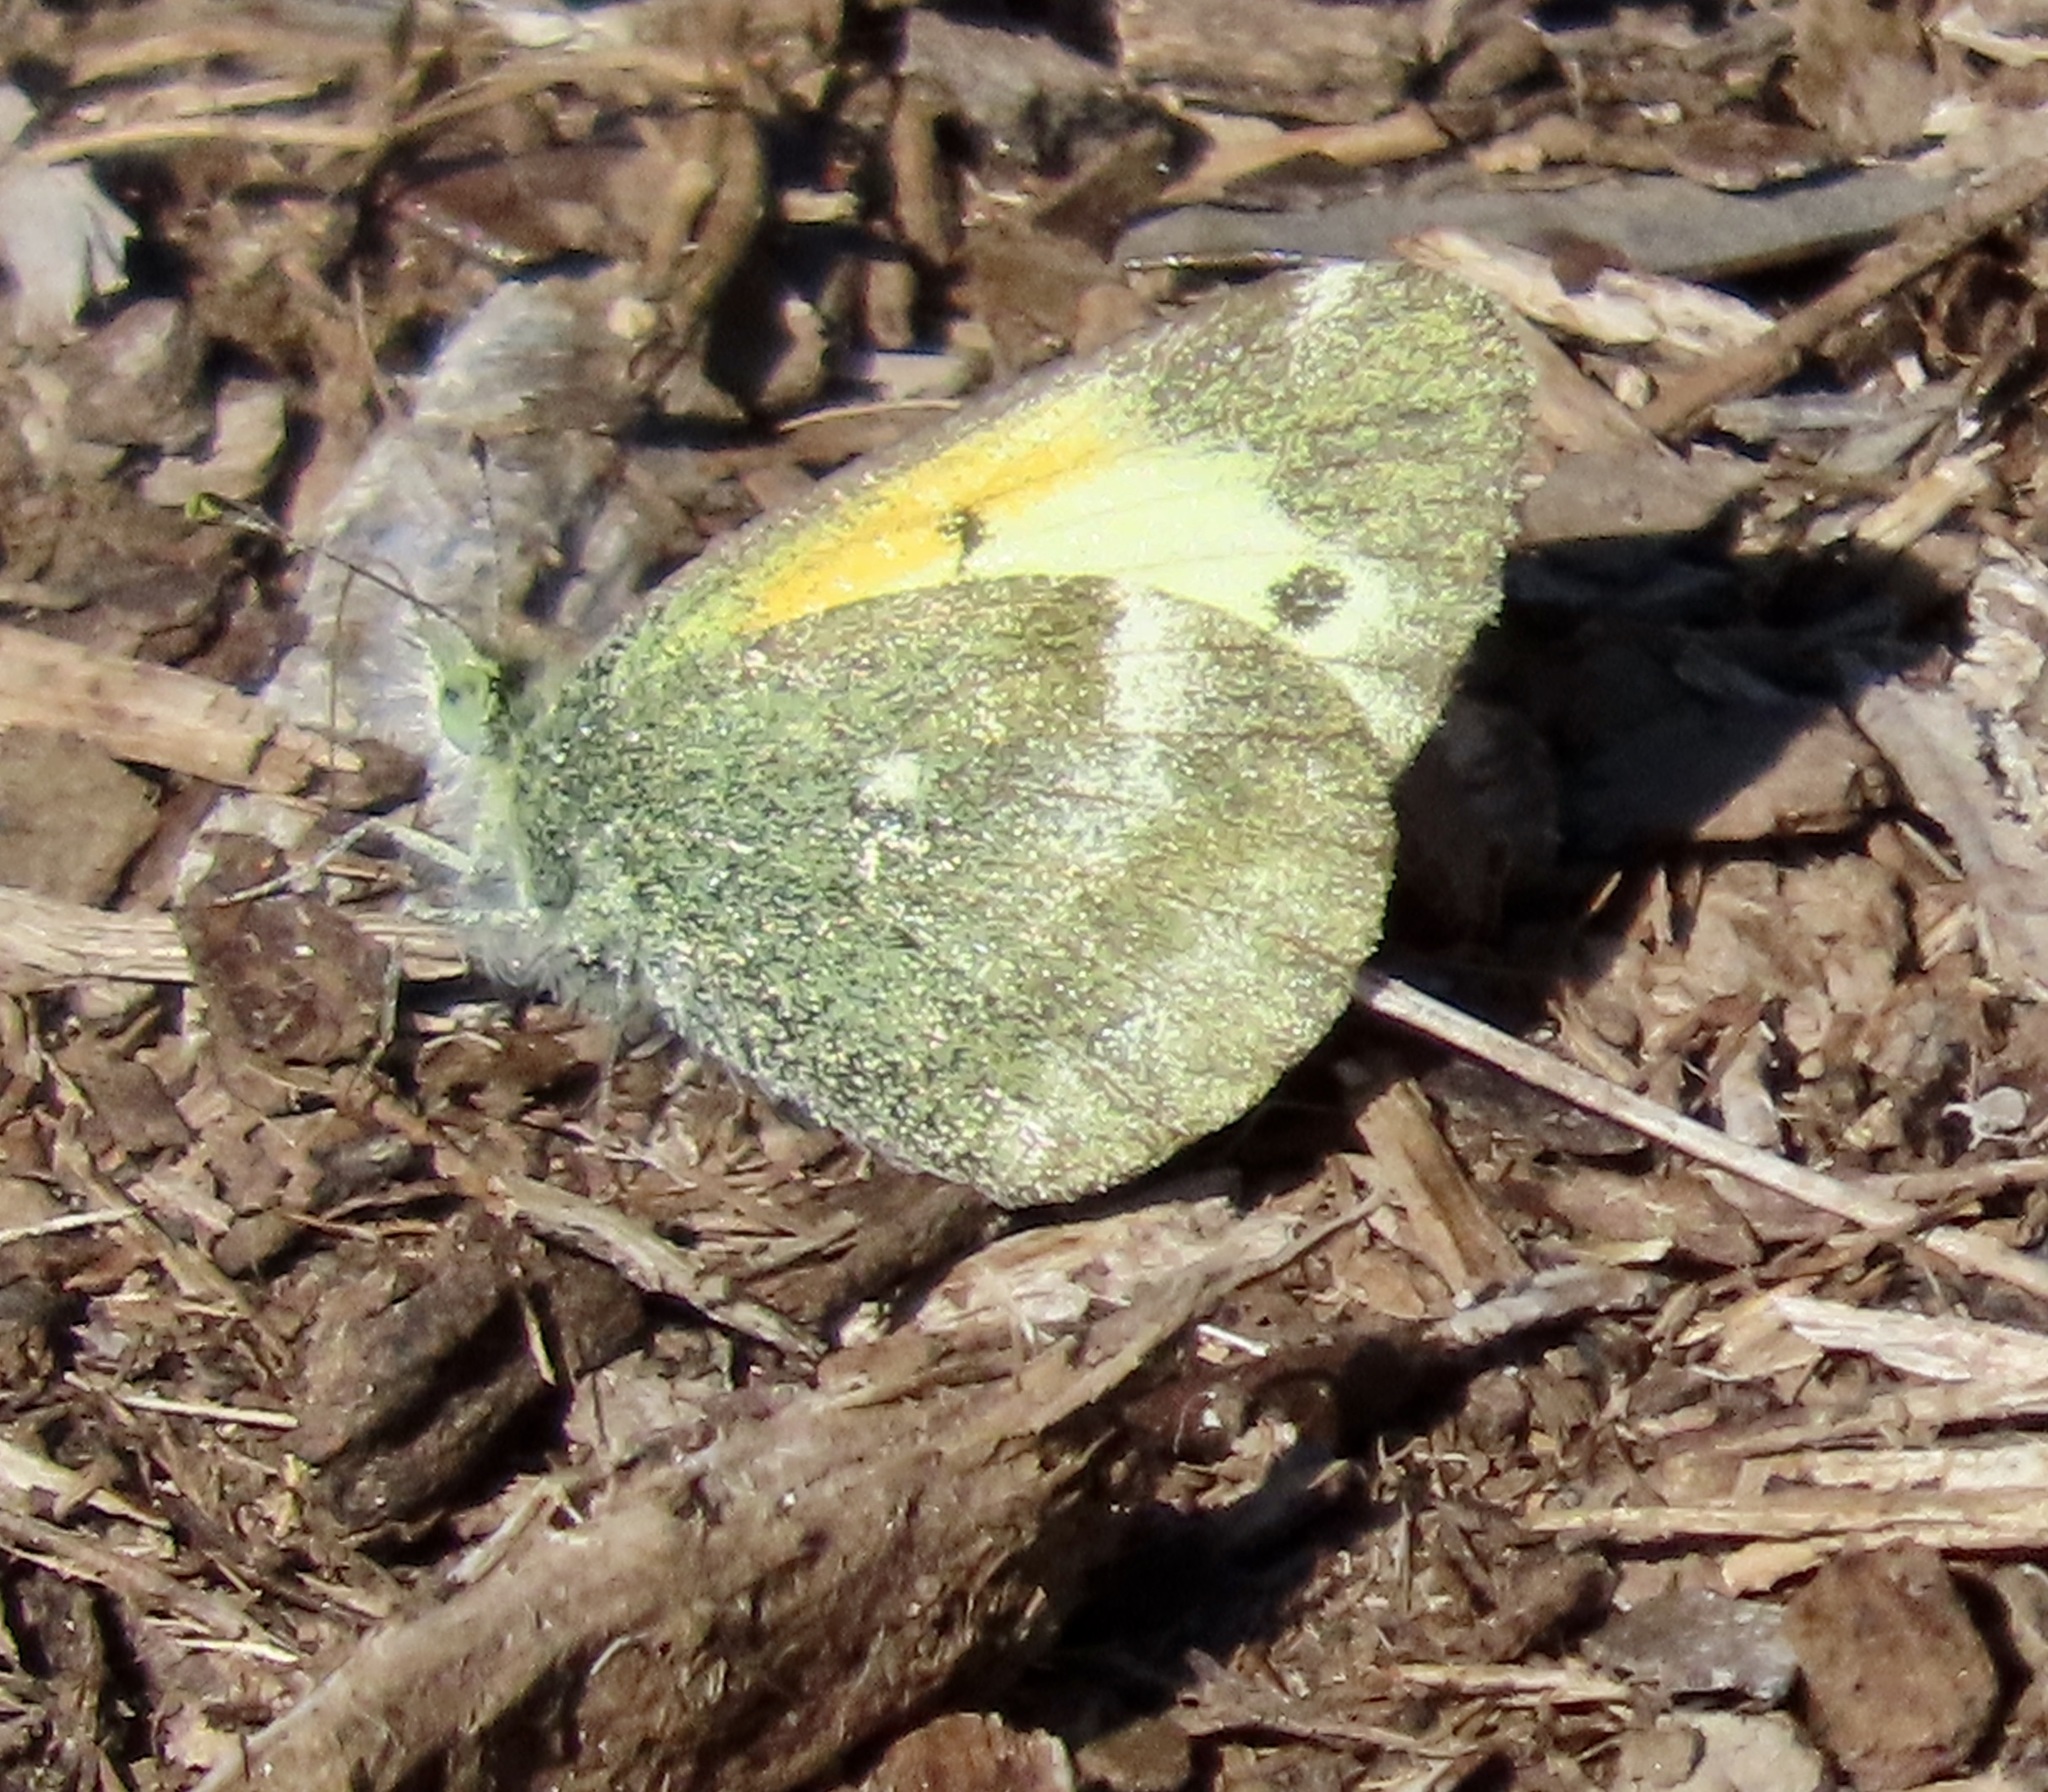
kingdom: Animalia
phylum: Arthropoda
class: Insecta
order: Lepidoptera
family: Pieridae
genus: Nathalis
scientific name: Nathalis iole
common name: Dainty sulphur
